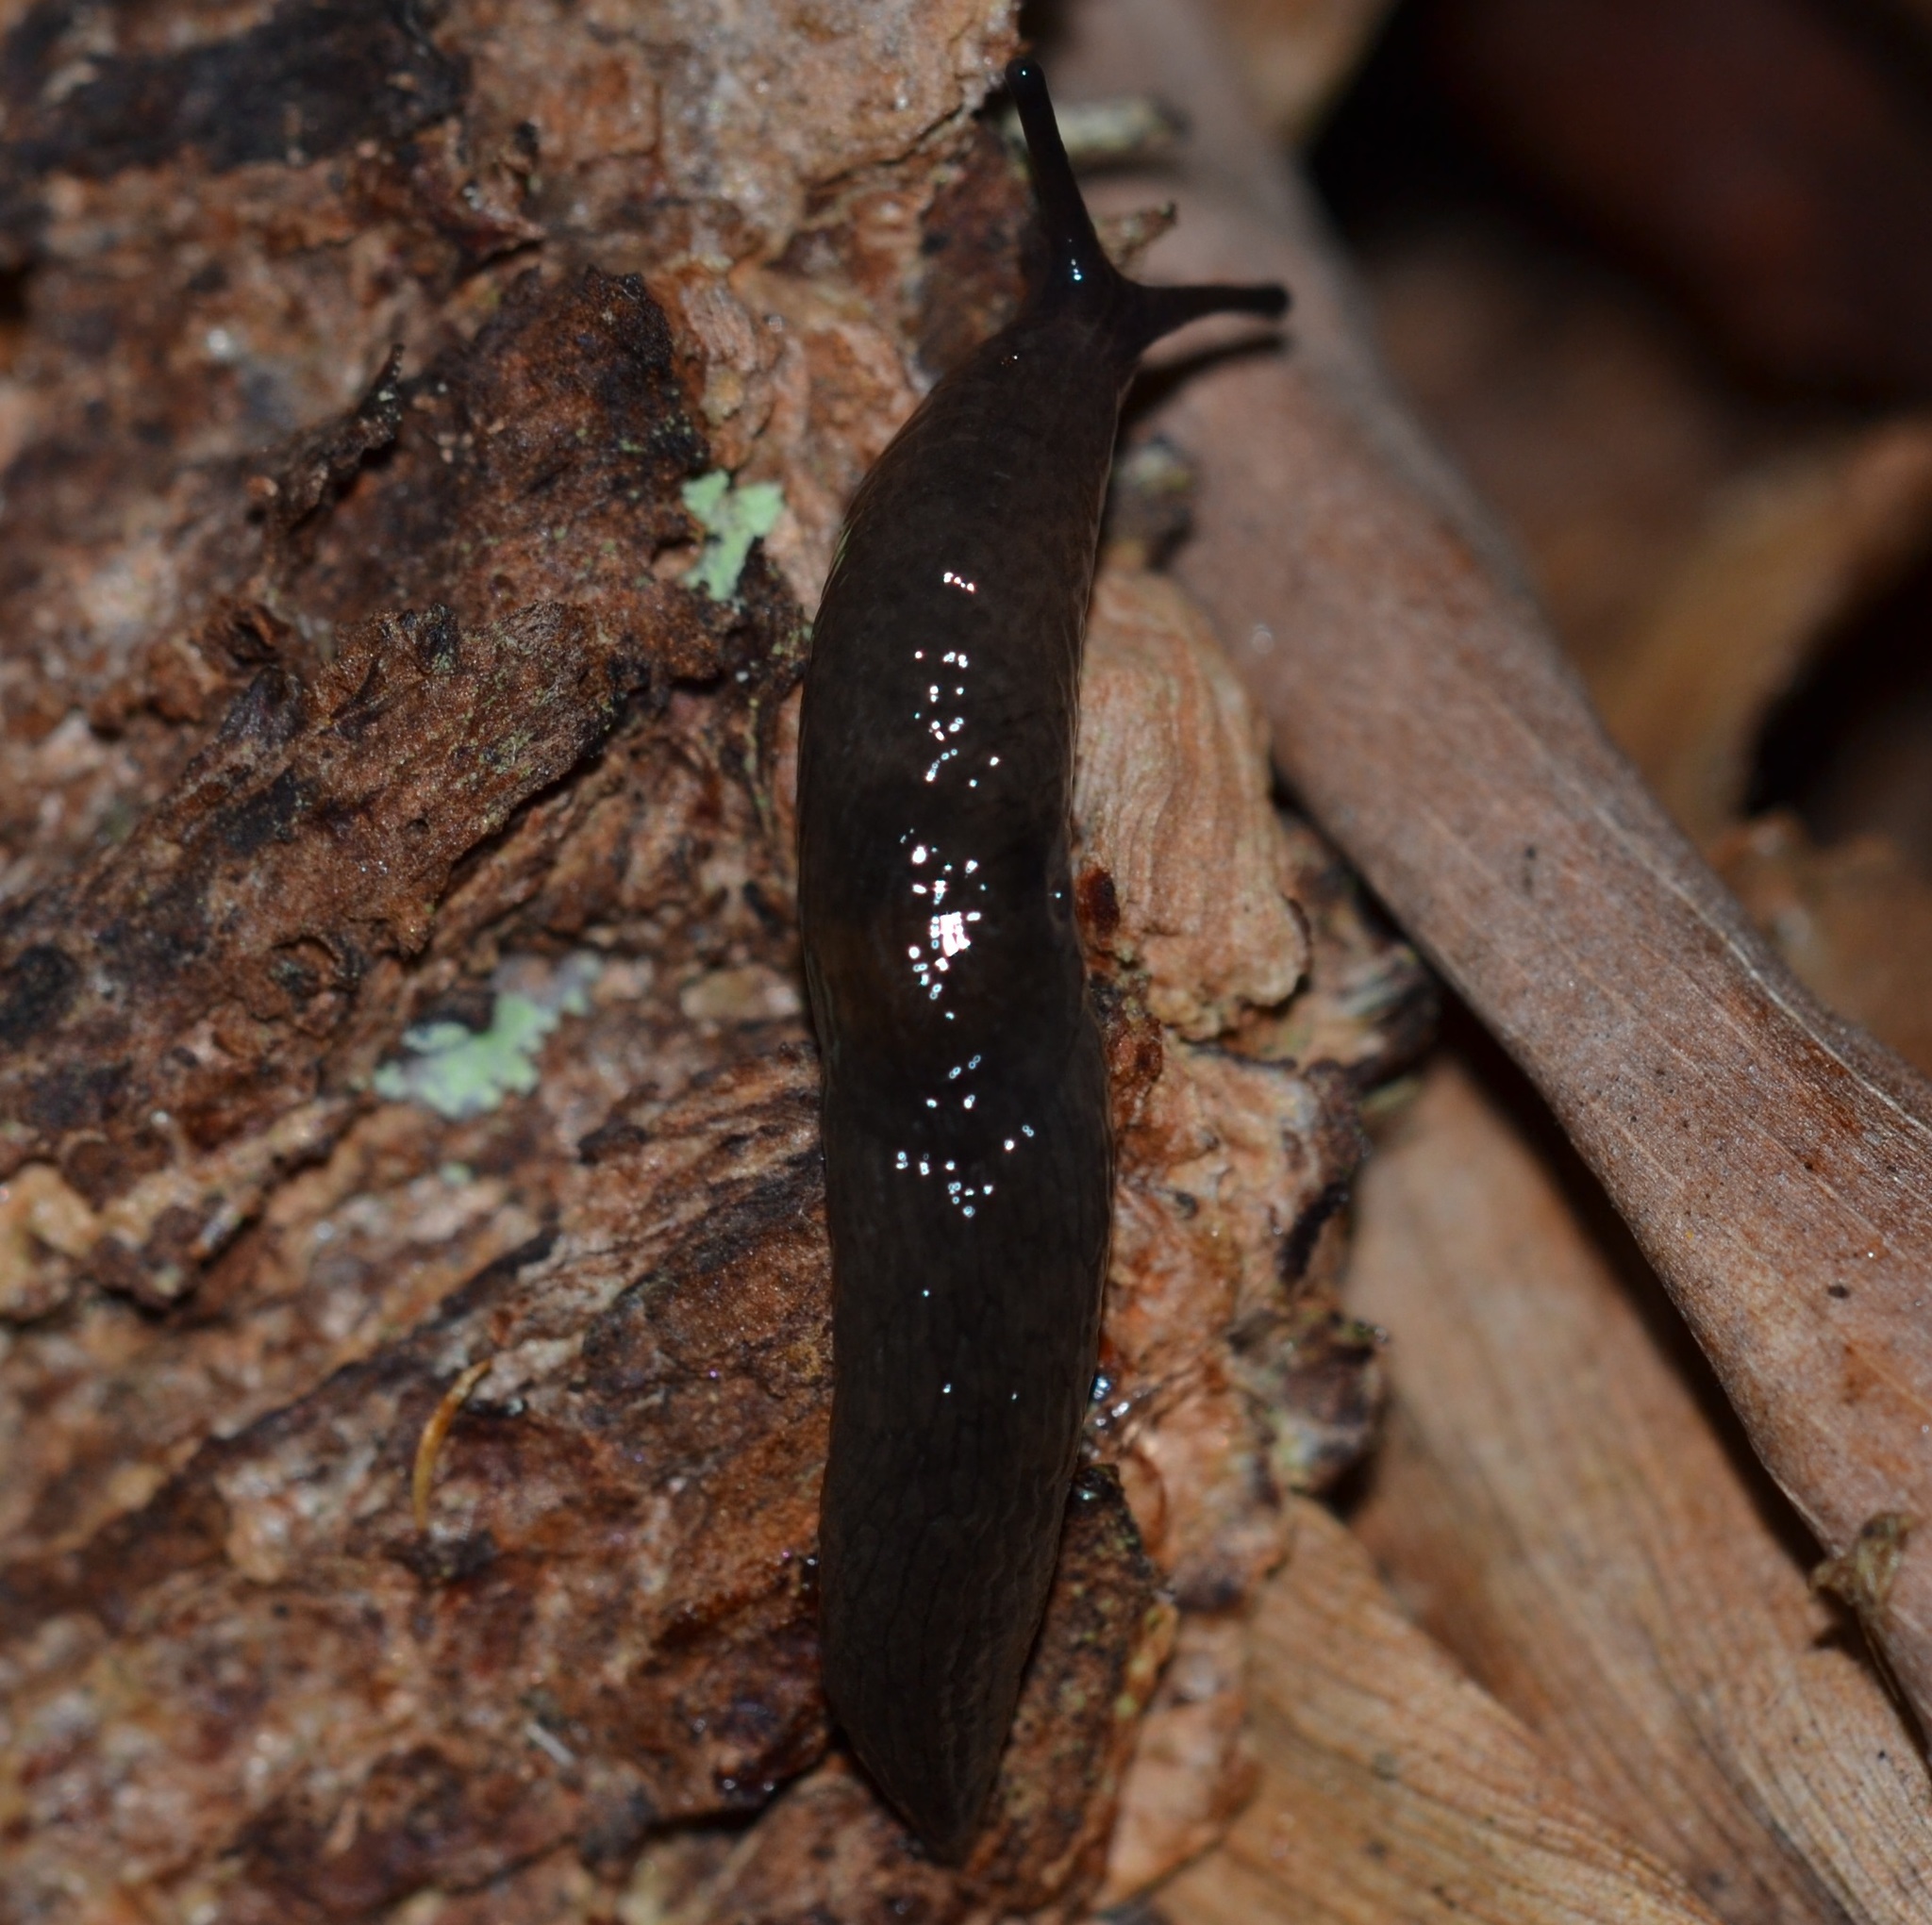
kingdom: Animalia
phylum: Mollusca
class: Gastropoda
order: Stylommatophora
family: Agriolimacidae
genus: Deroceras
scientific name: Deroceras laeve
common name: Marsh slug
